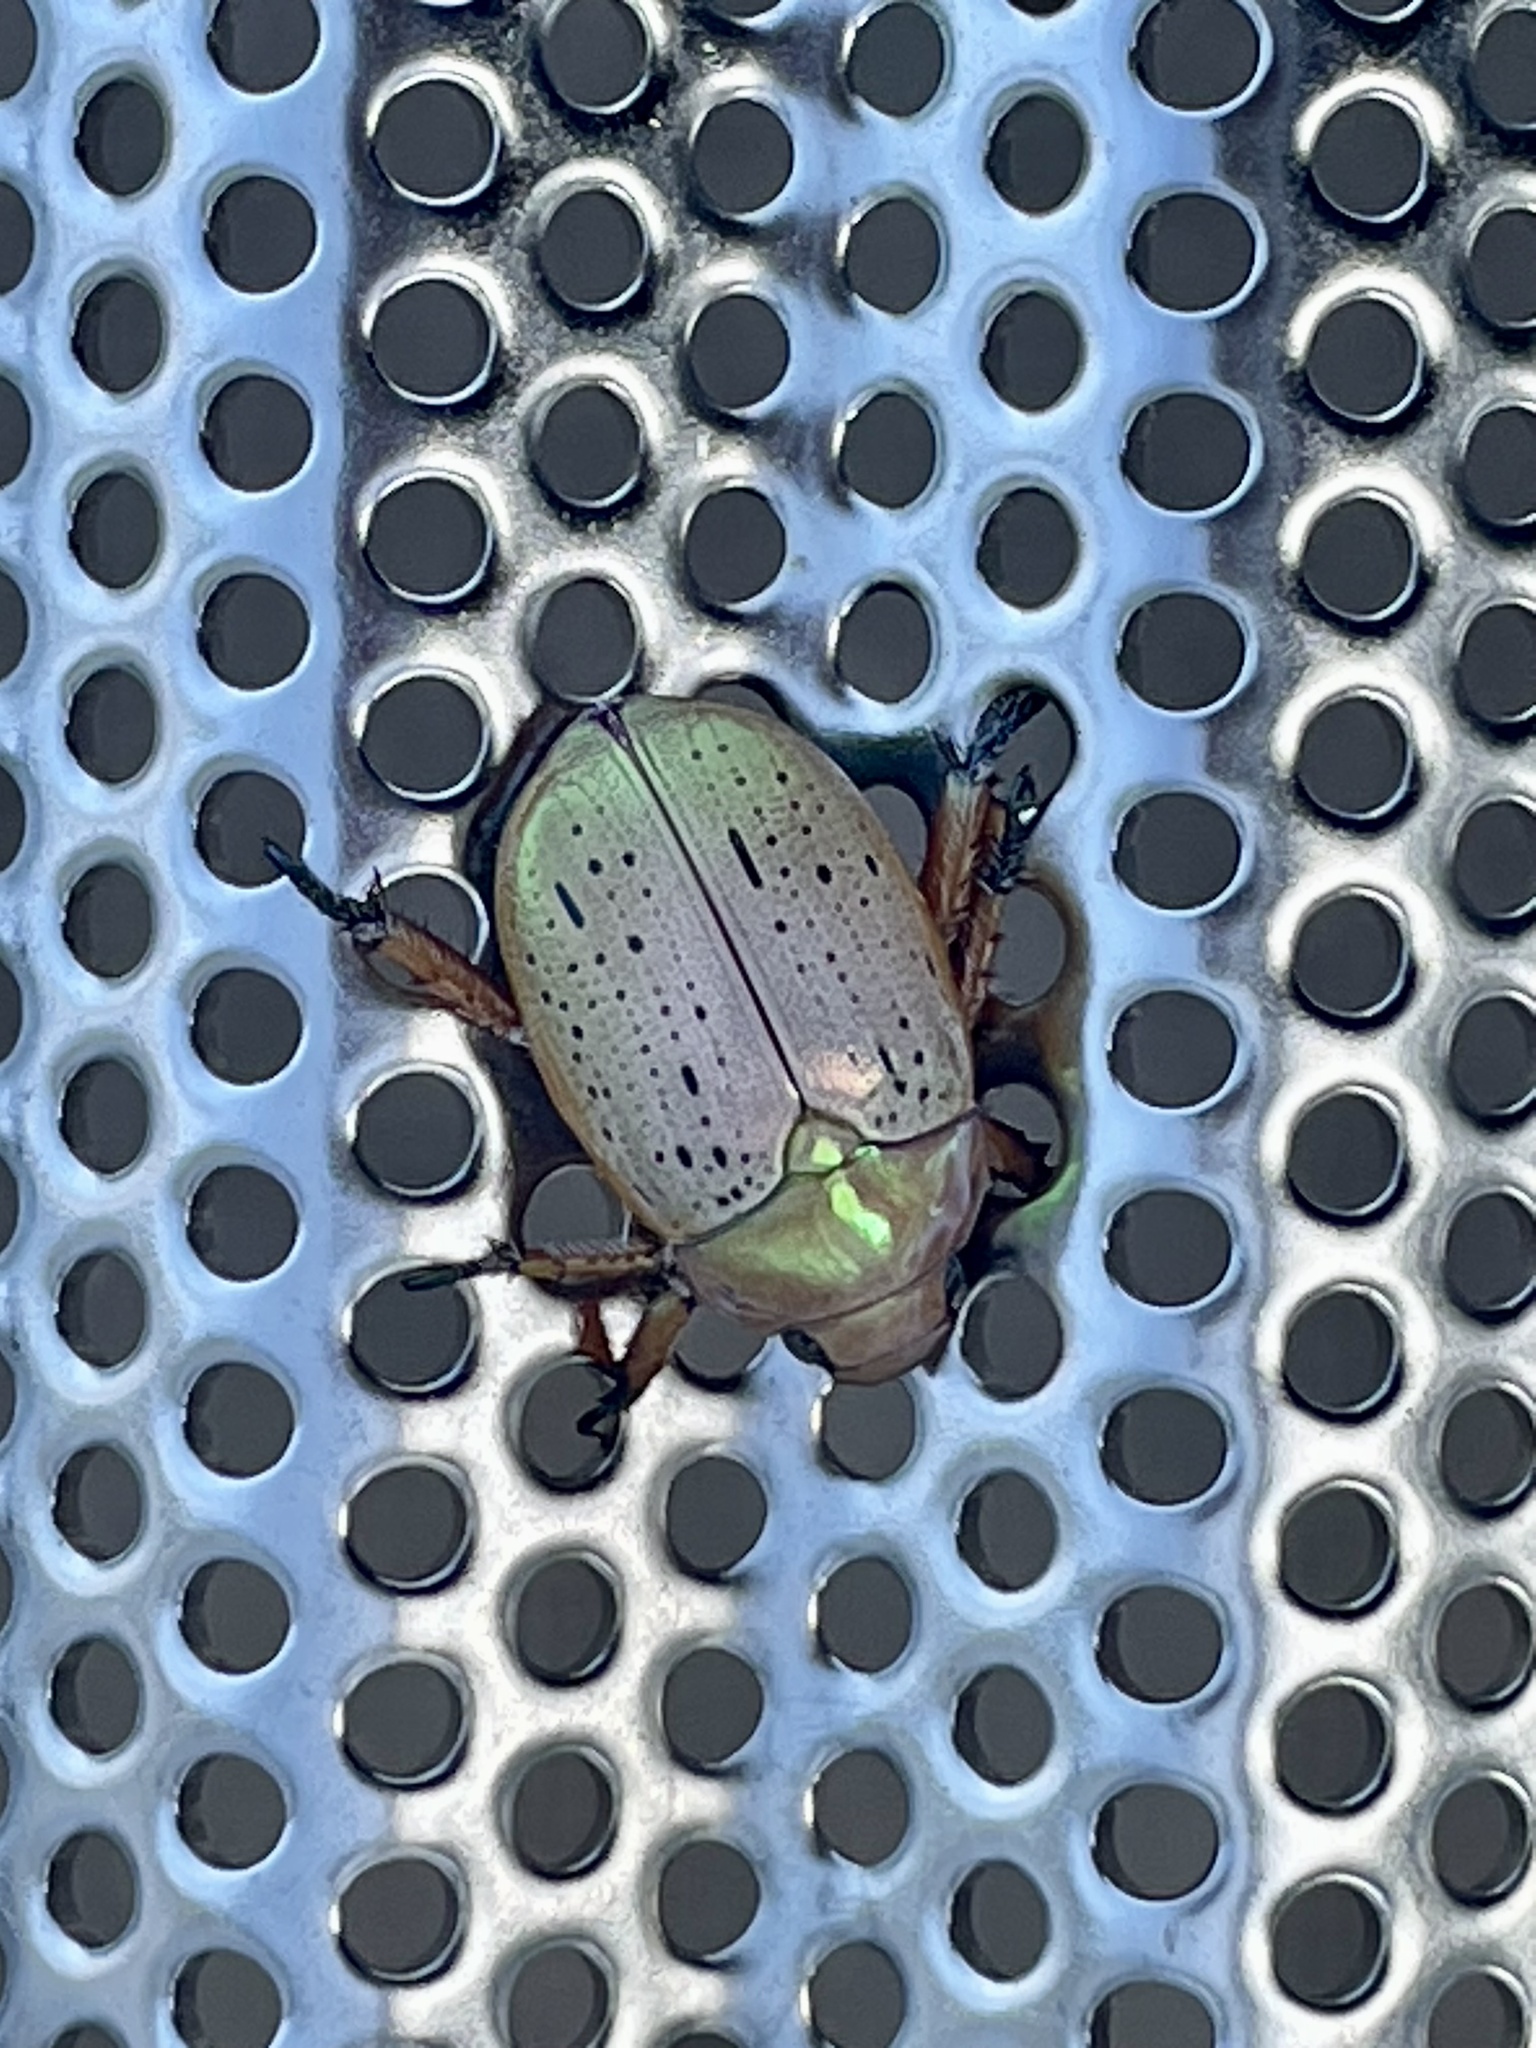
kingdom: Animalia
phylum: Arthropoda
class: Insecta
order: Coleoptera
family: Scarabaeidae
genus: Anoplognathus
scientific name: Anoplognathus porosus
